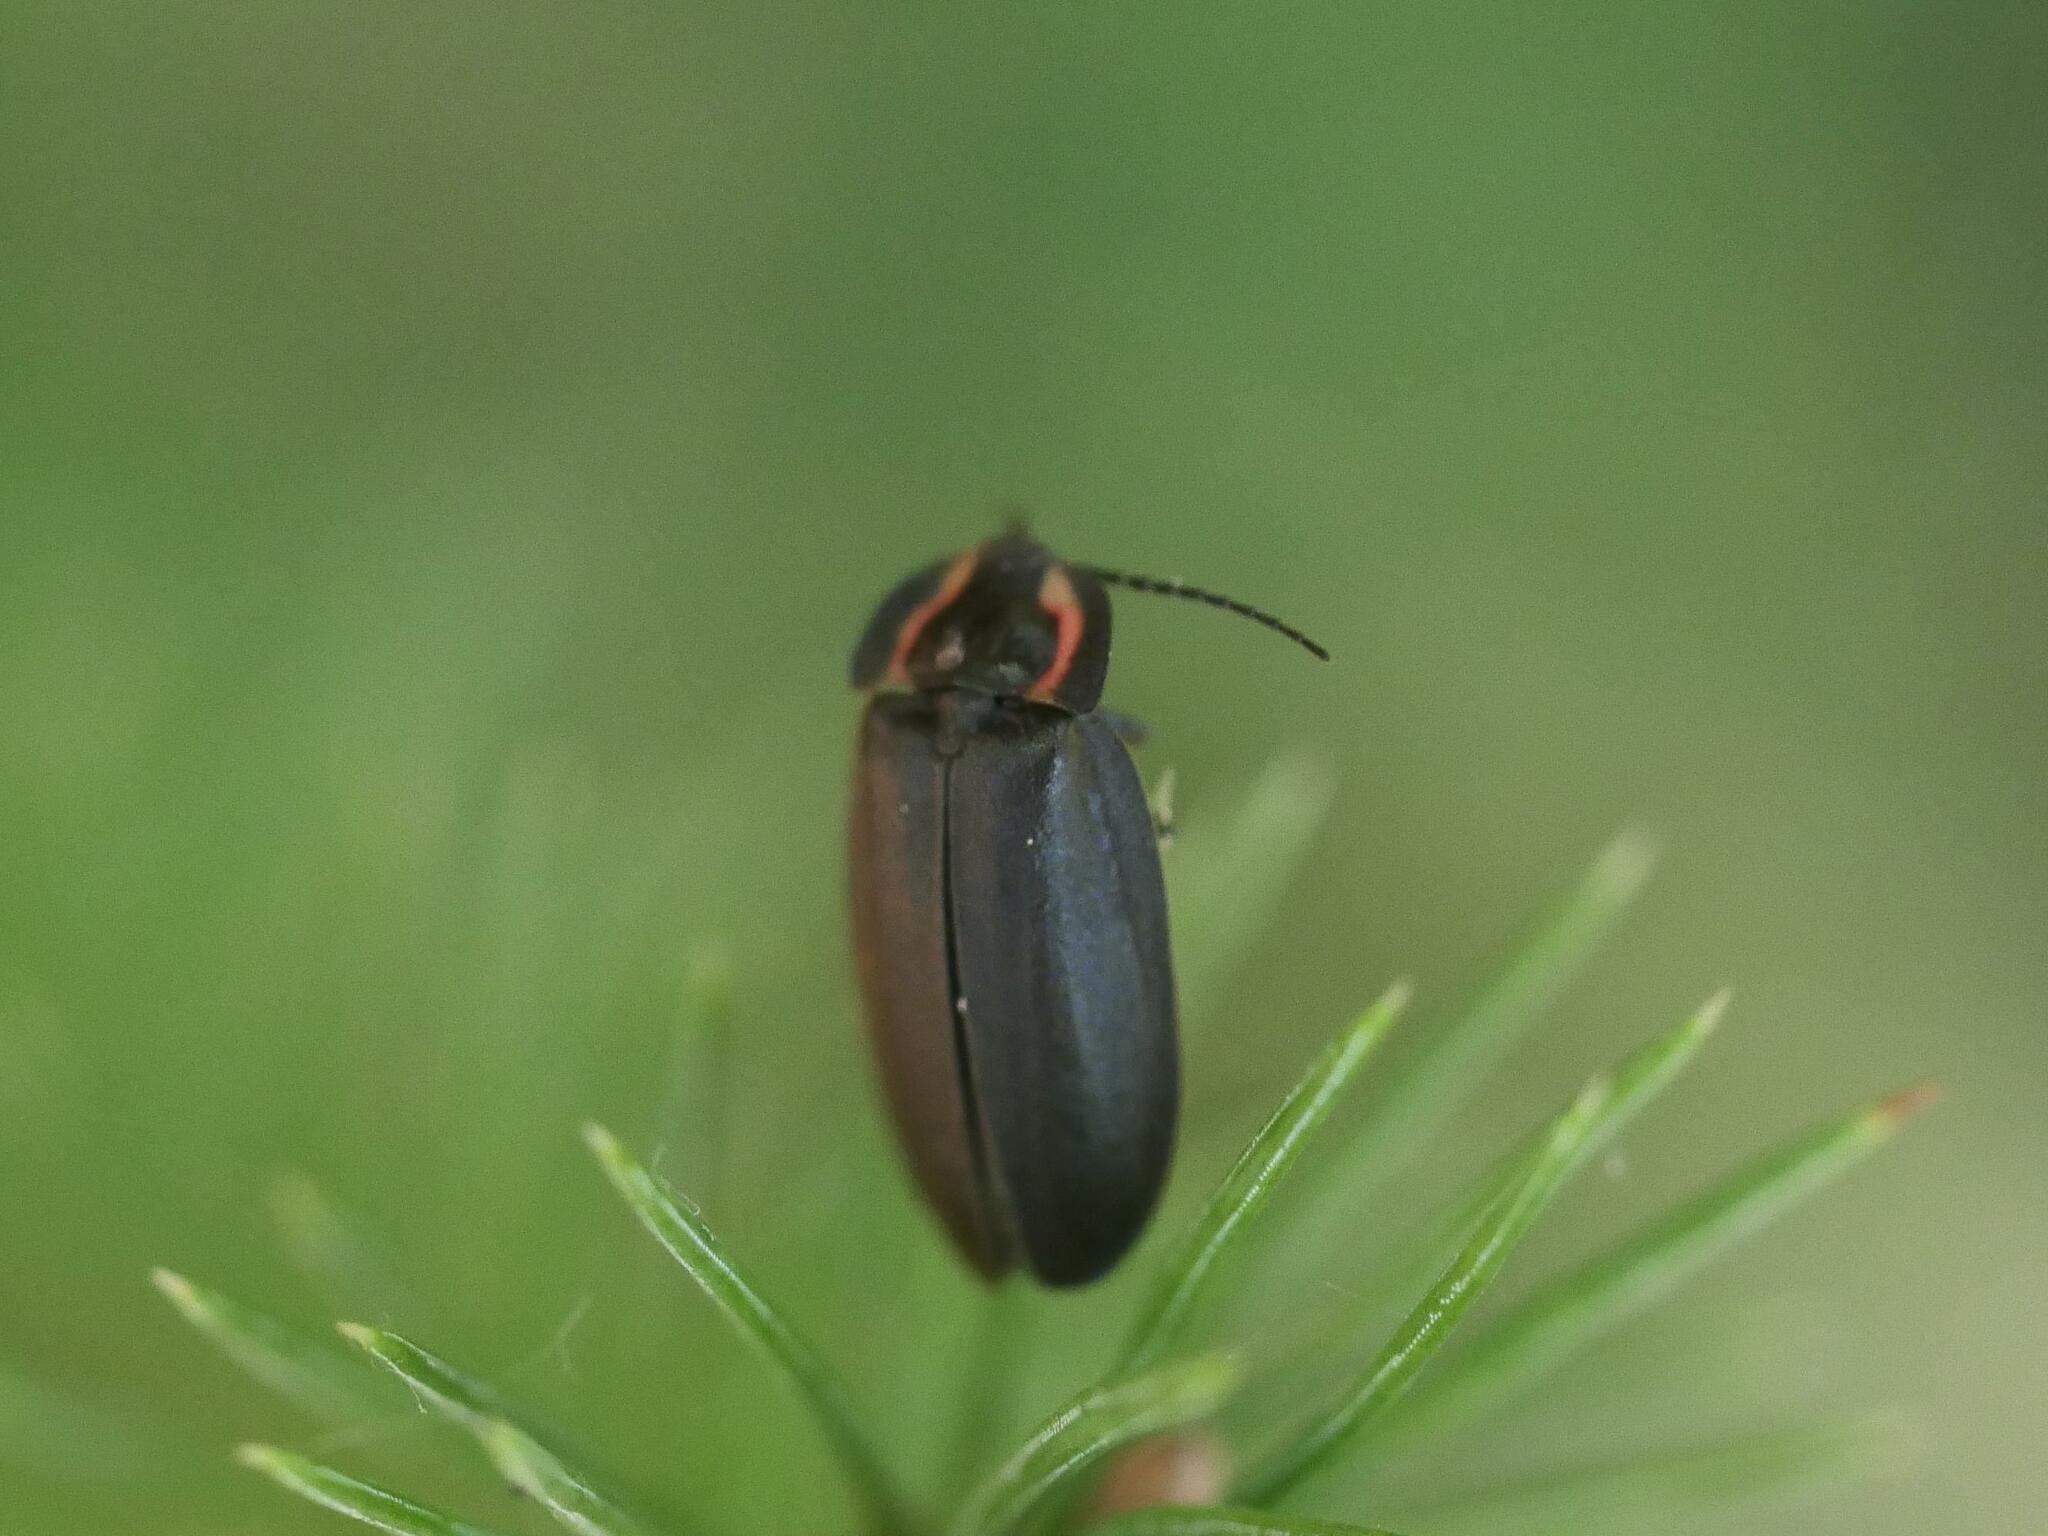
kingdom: Animalia
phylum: Arthropoda
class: Insecta
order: Coleoptera
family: Lampyridae
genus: Photinus
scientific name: Photinus corrusca
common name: Winter firefly
